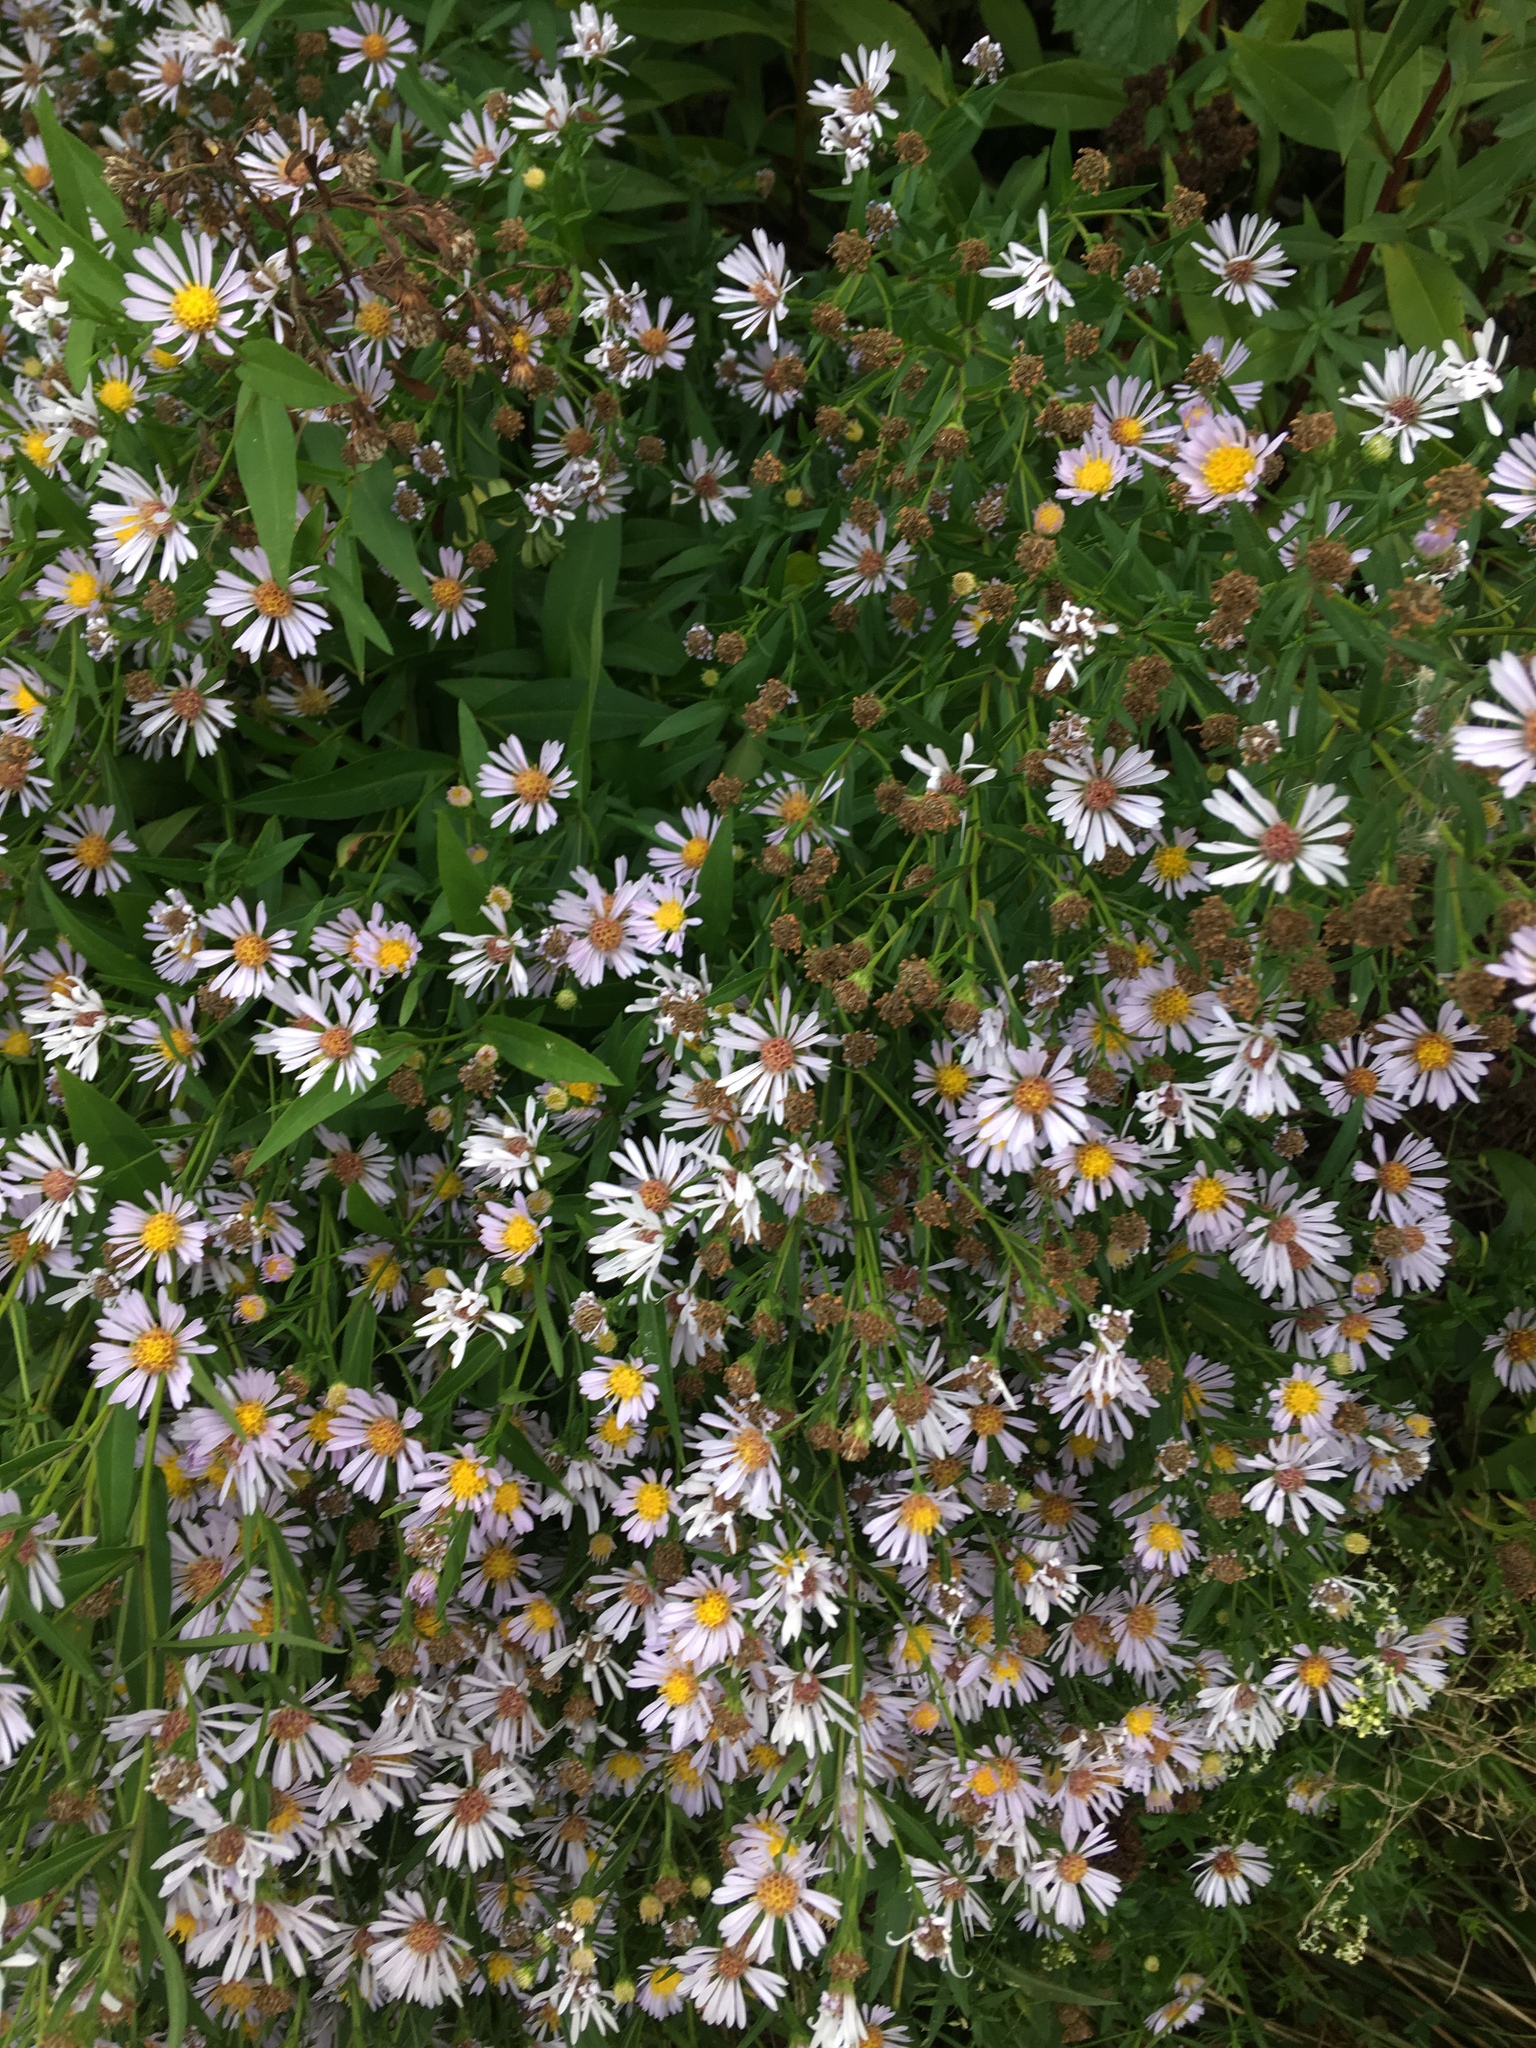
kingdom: Plantae
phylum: Tracheophyta
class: Magnoliopsida
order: Asterales
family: Asteraceae
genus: Symphyotrichum
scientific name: Symphyotrichum salignum
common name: Common michaelmas daisy
